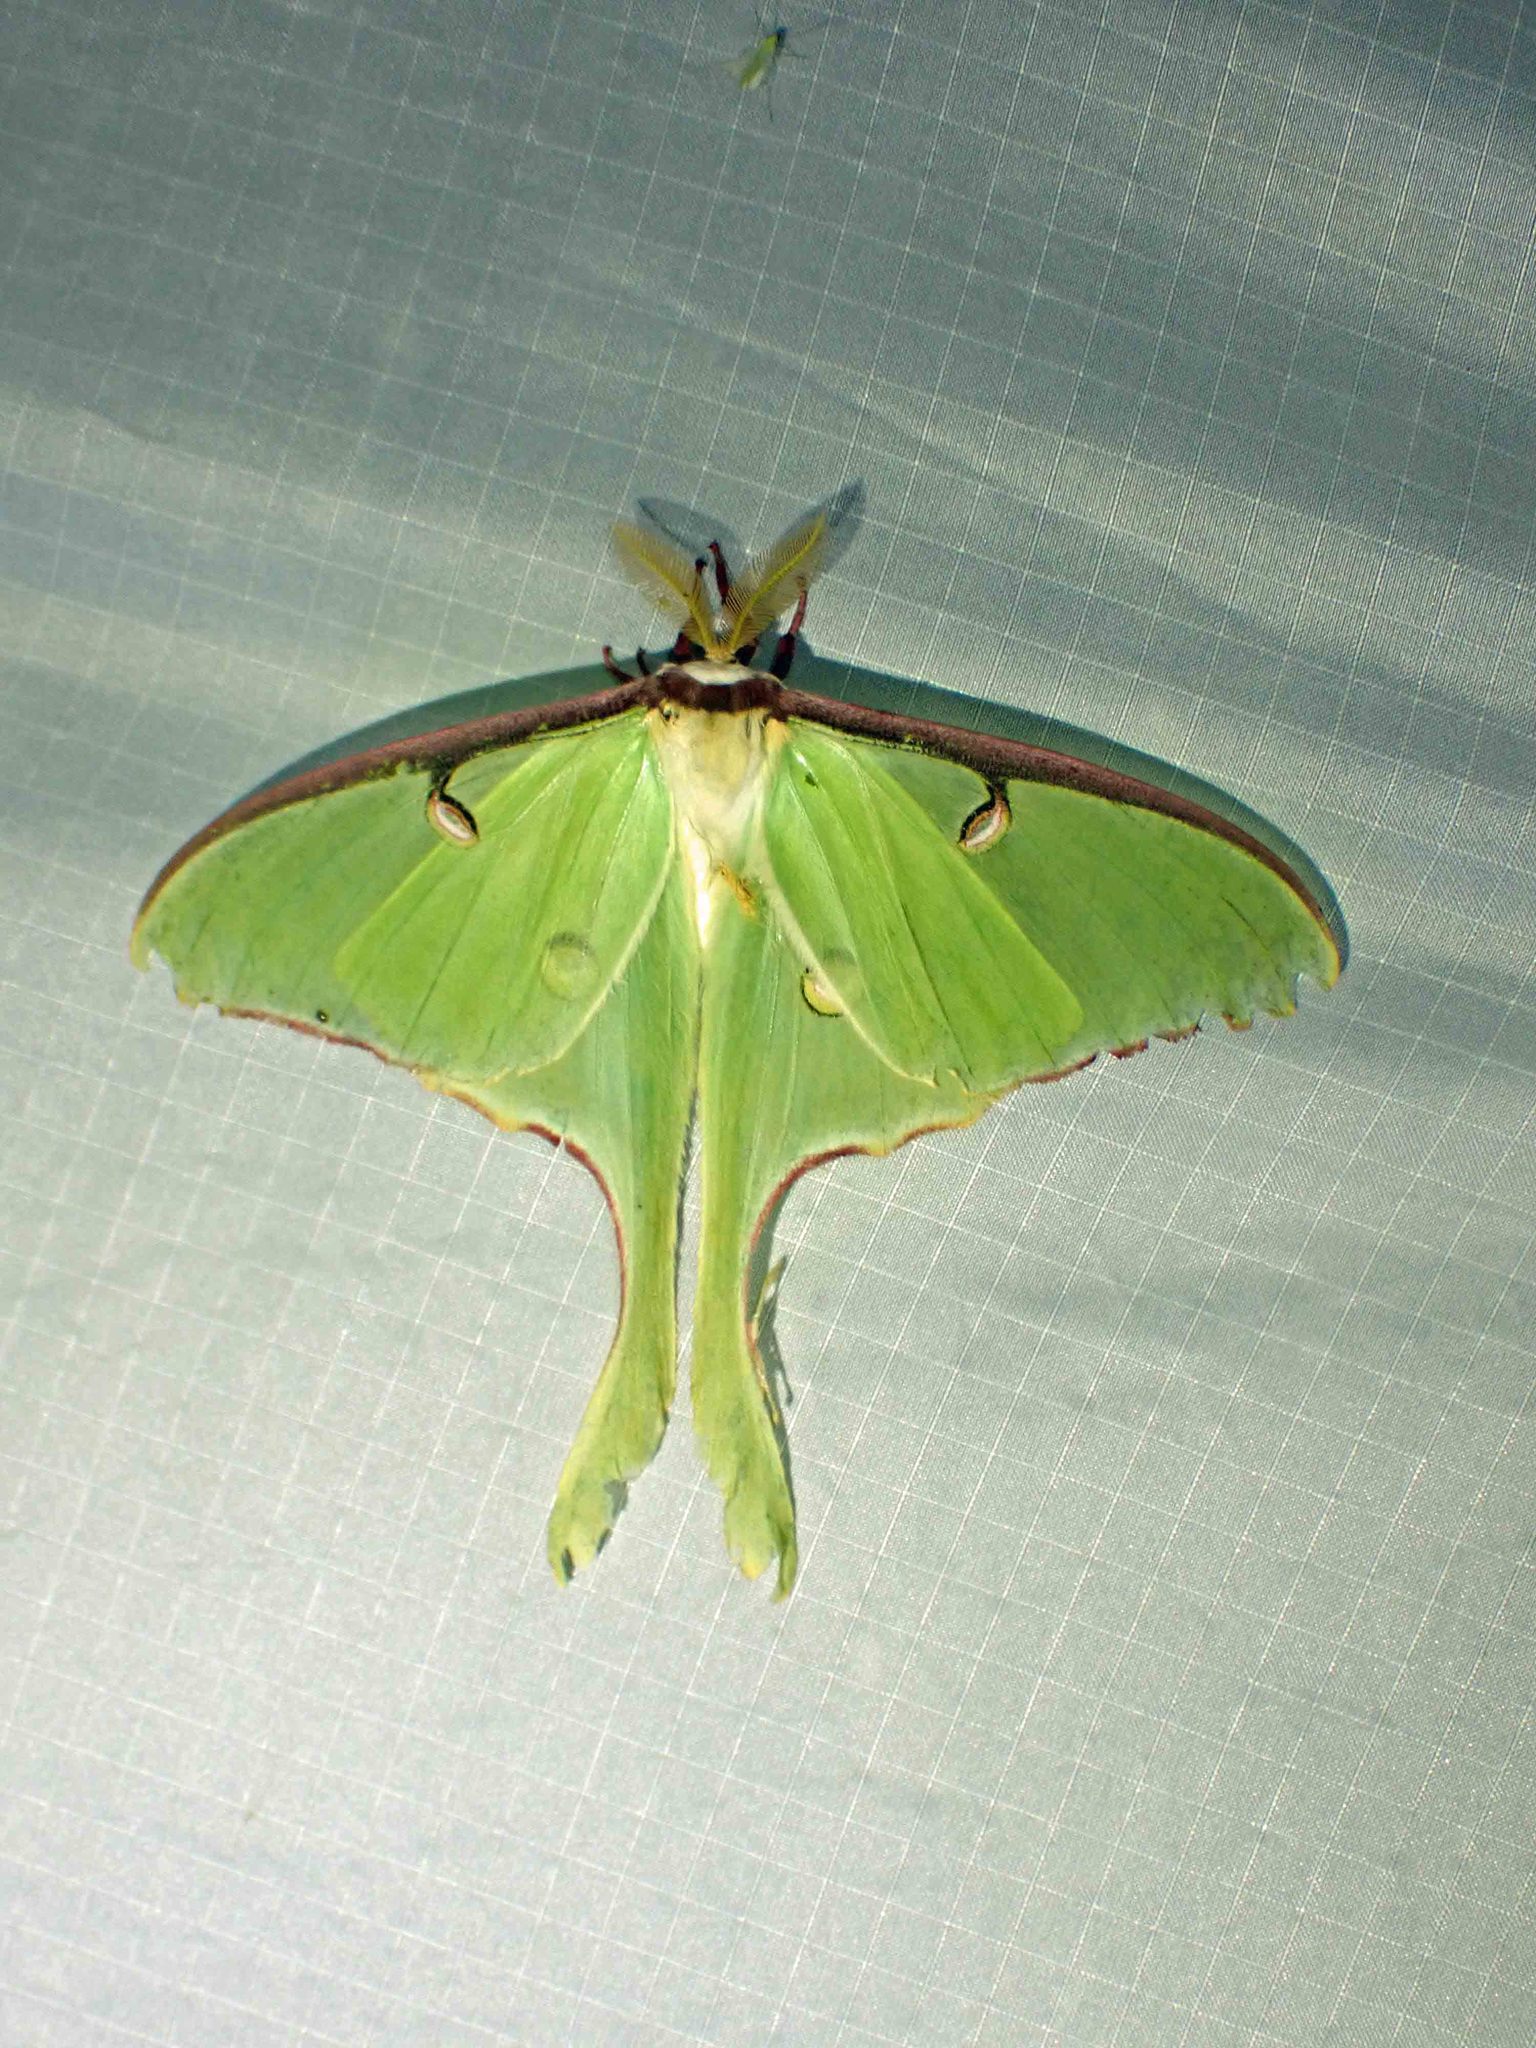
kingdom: Animalia
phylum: Arthropoda
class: Insecta
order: Lepidoptera
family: Saturniidae
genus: Actias
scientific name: Actias luna
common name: Luna moth
